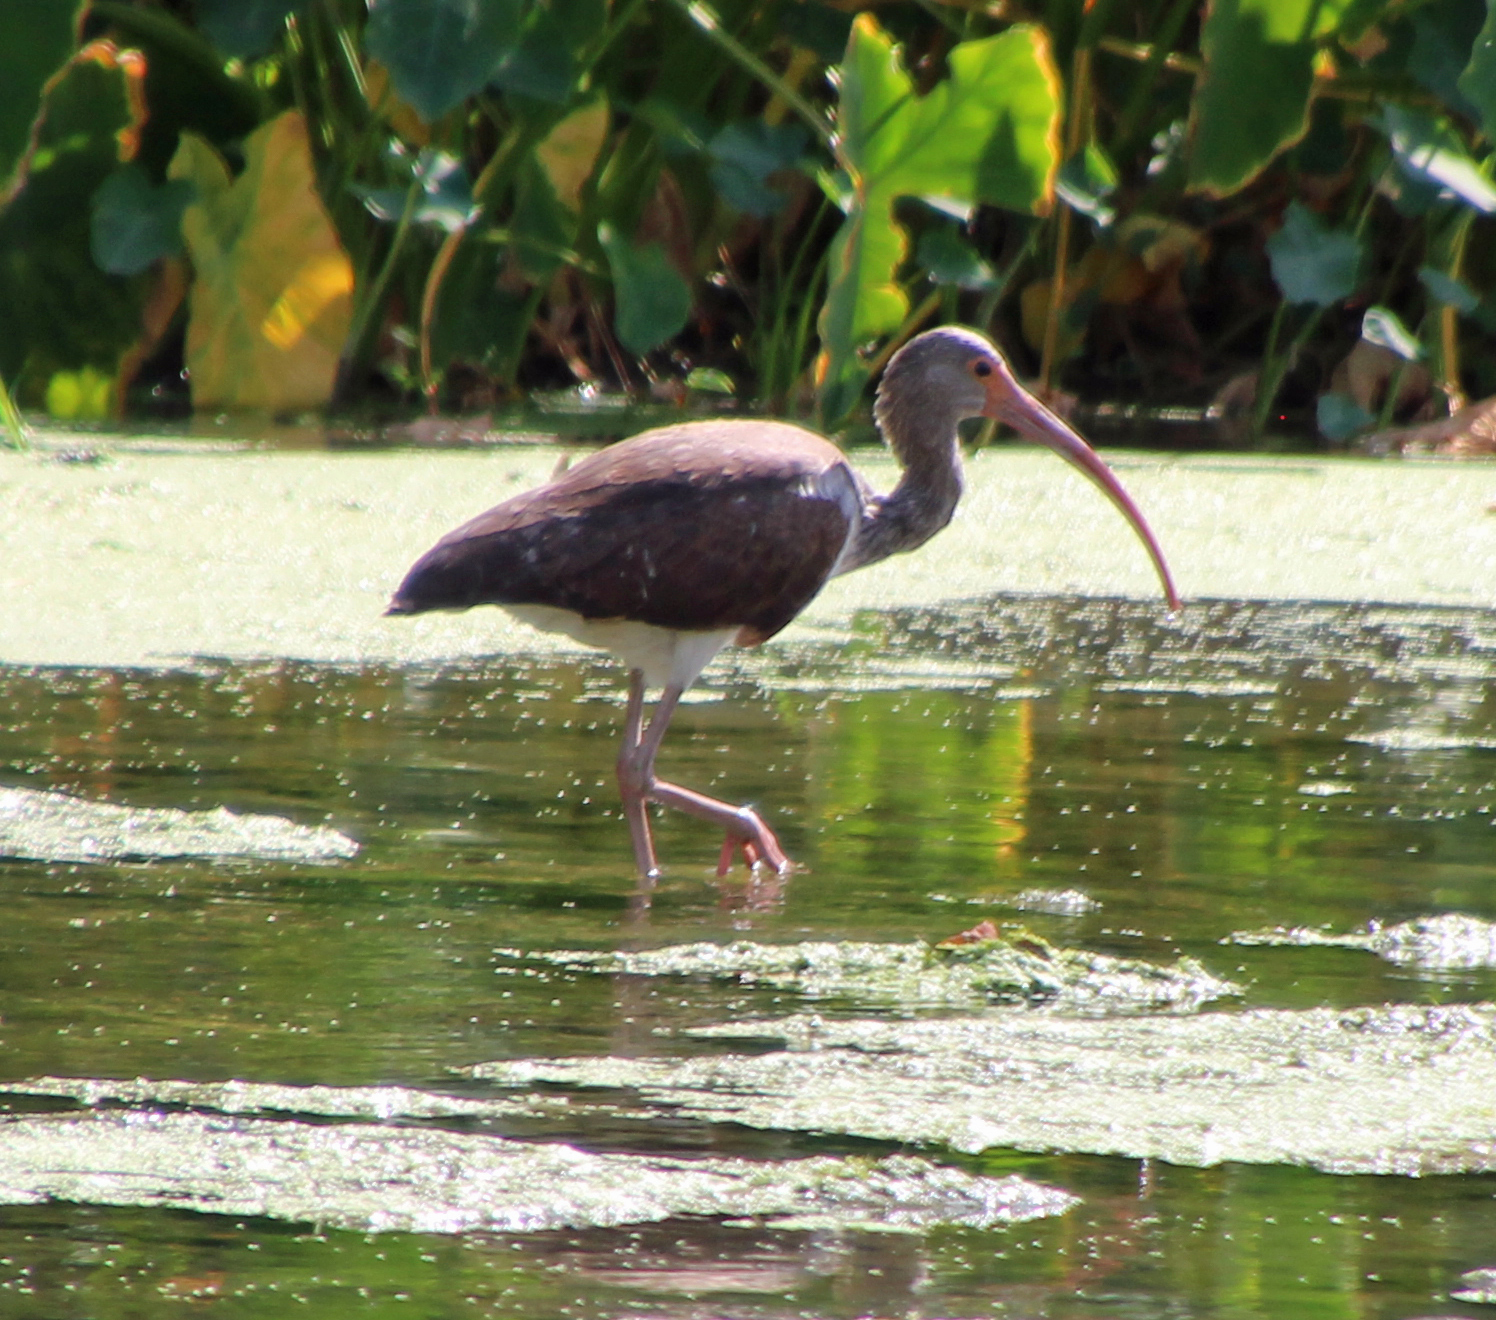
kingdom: Animalia
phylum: Chordata
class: Aves
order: Pelecaniformes
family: Threskiornithidae
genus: Eudocimus
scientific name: Eudocimus albus
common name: White ibis
